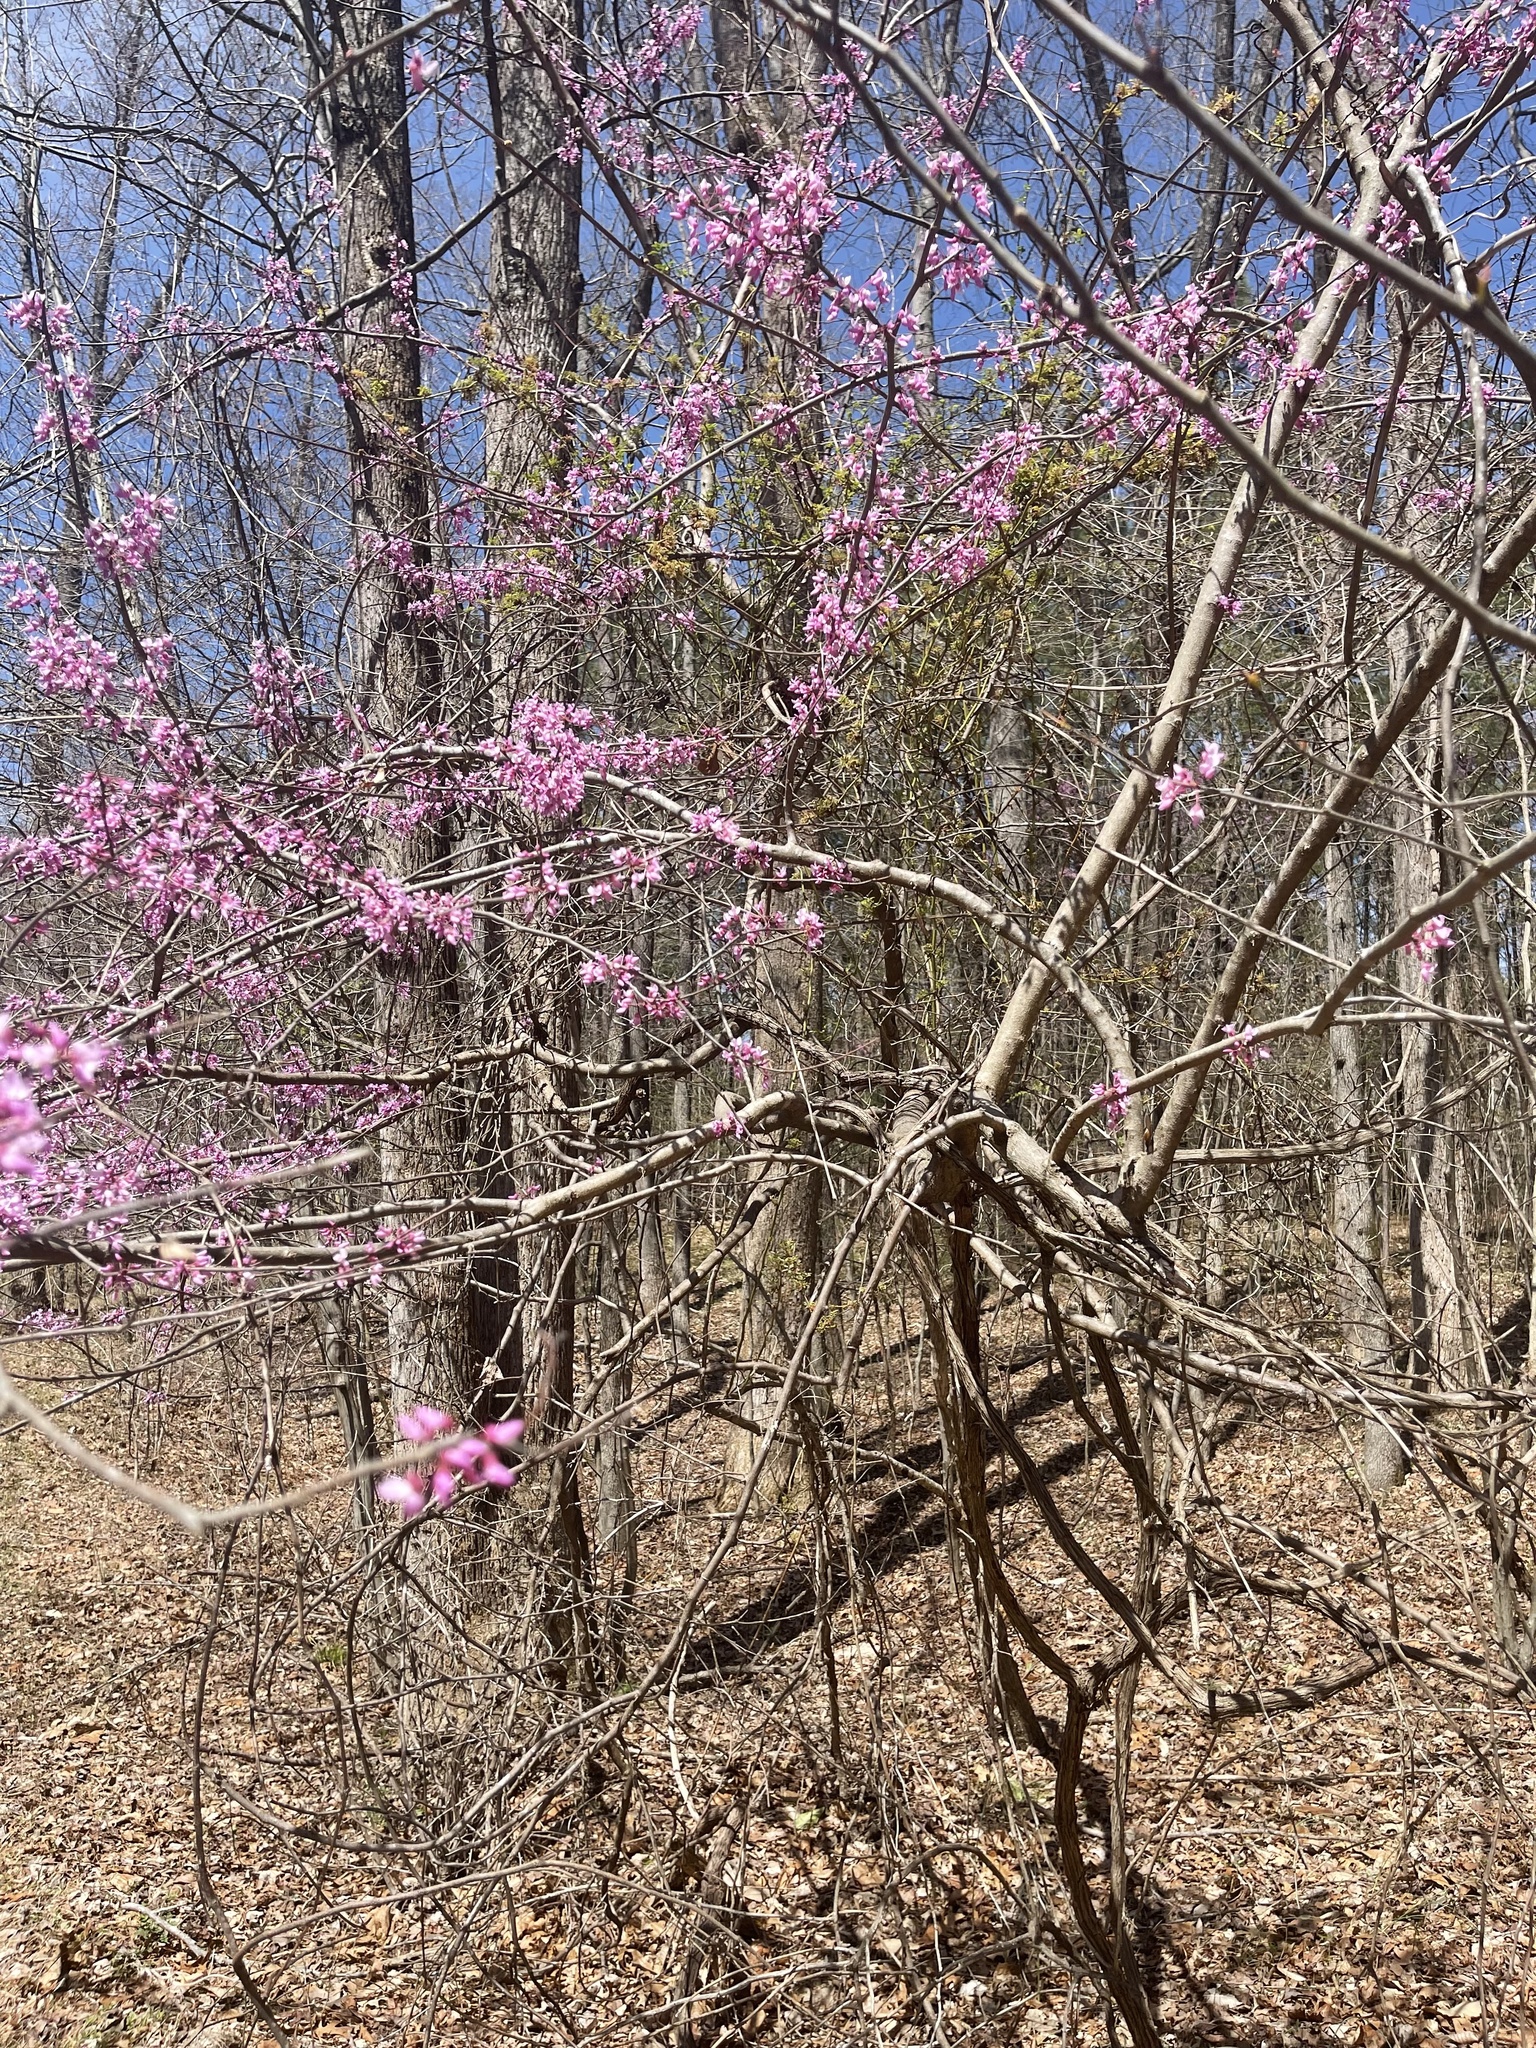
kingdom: Plantae
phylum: Tracheophyta
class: Magnoliopsida
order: Fabales
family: Fabaceae
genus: Cercis
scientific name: Cercis canadensis
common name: Eastern redbud
